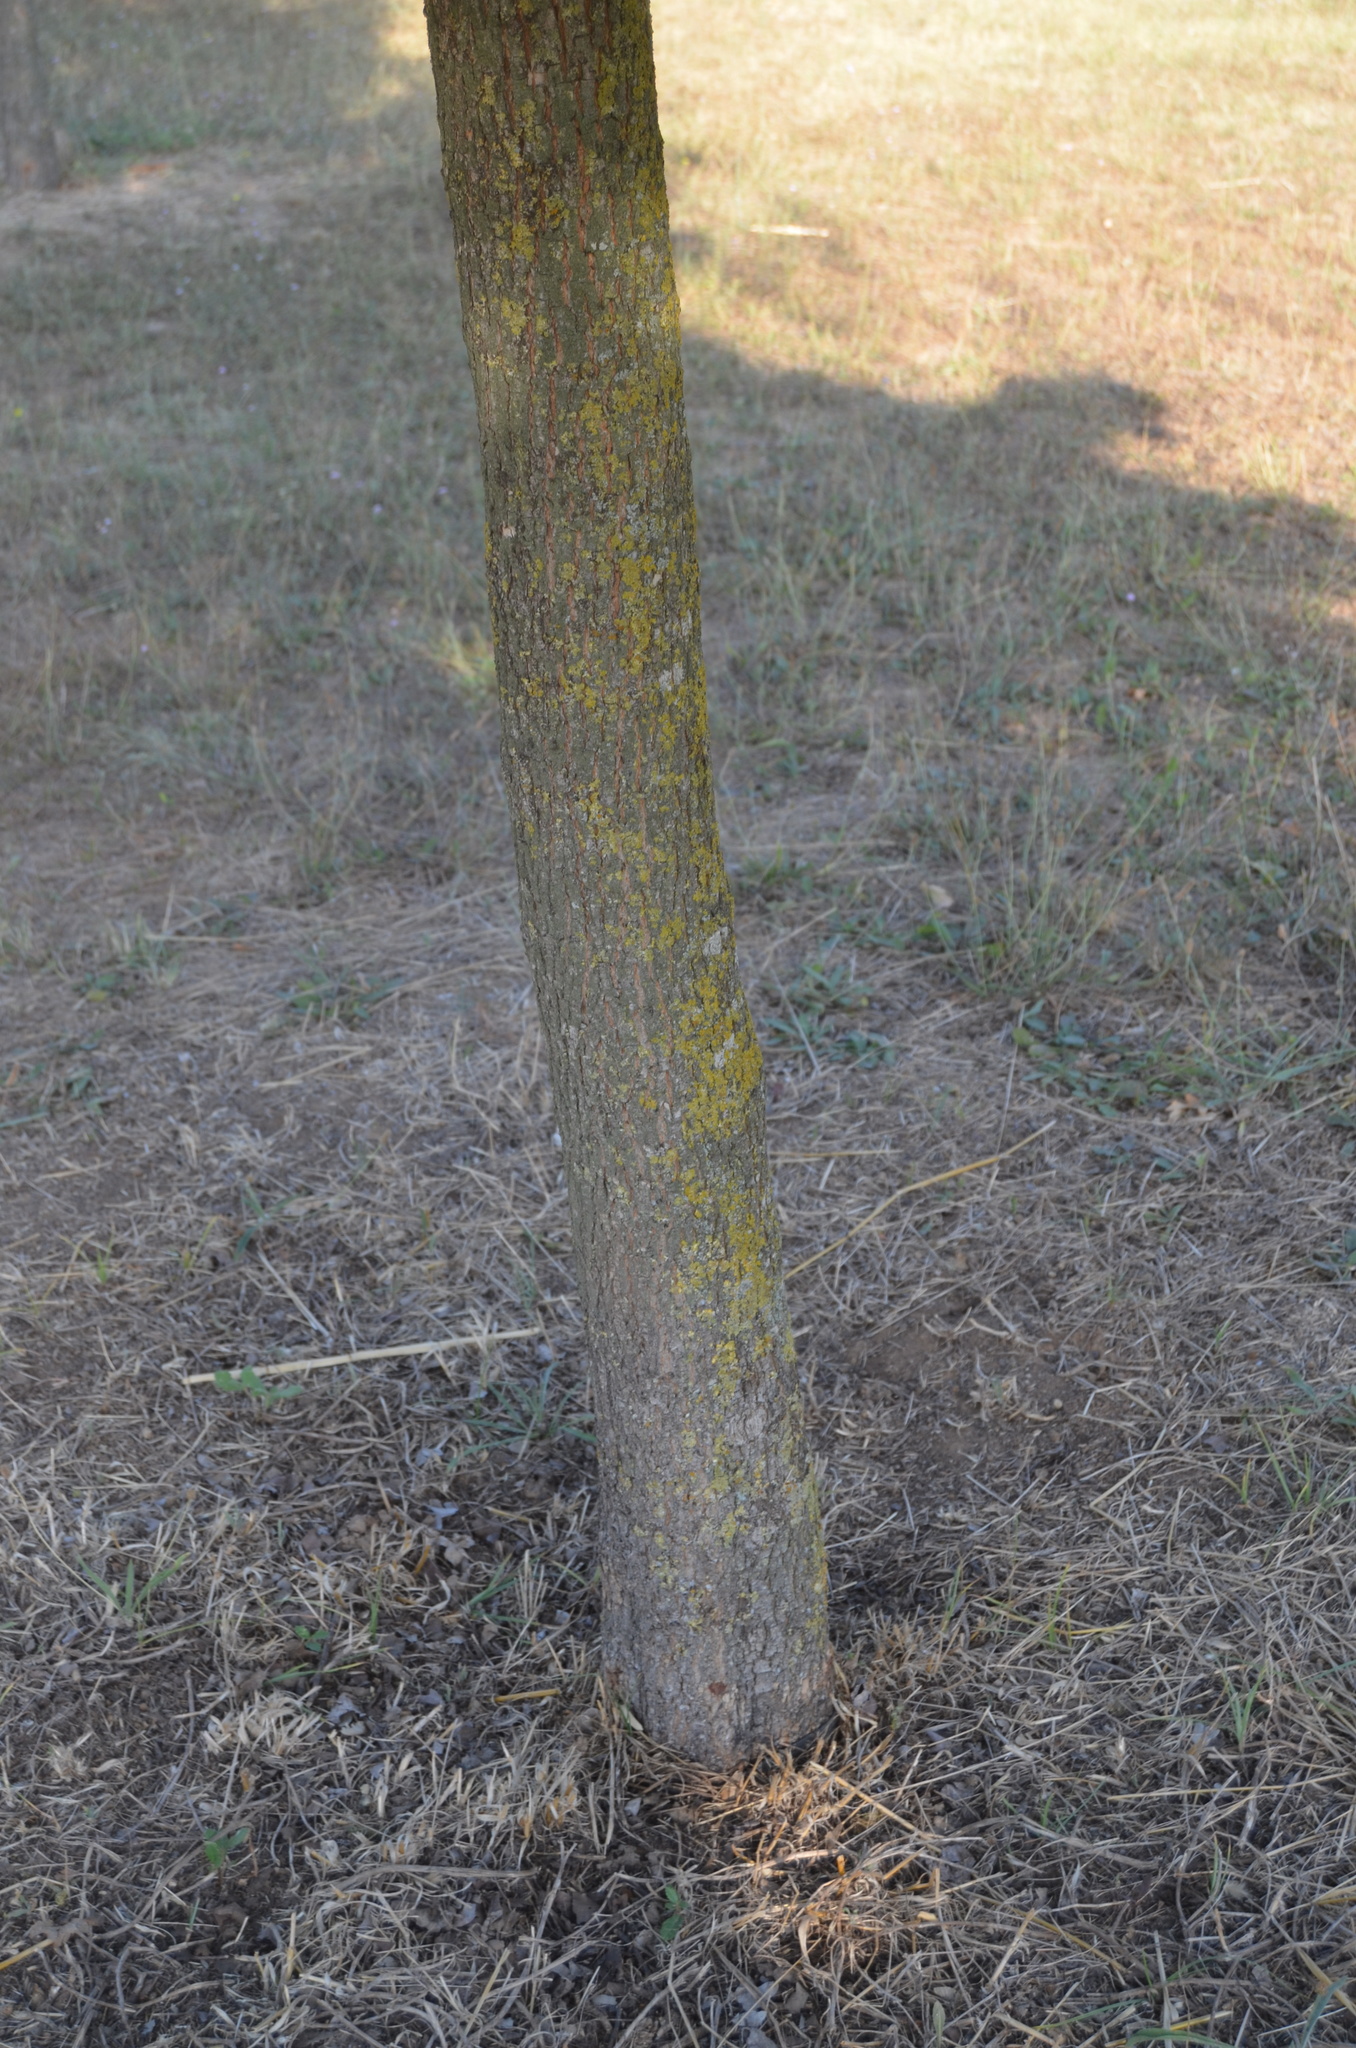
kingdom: Plantae
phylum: Tracheophyta
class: Magnoliopsida
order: Sapindales
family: Sapindaceae
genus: Acer
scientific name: Acer campestre
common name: Field maple
